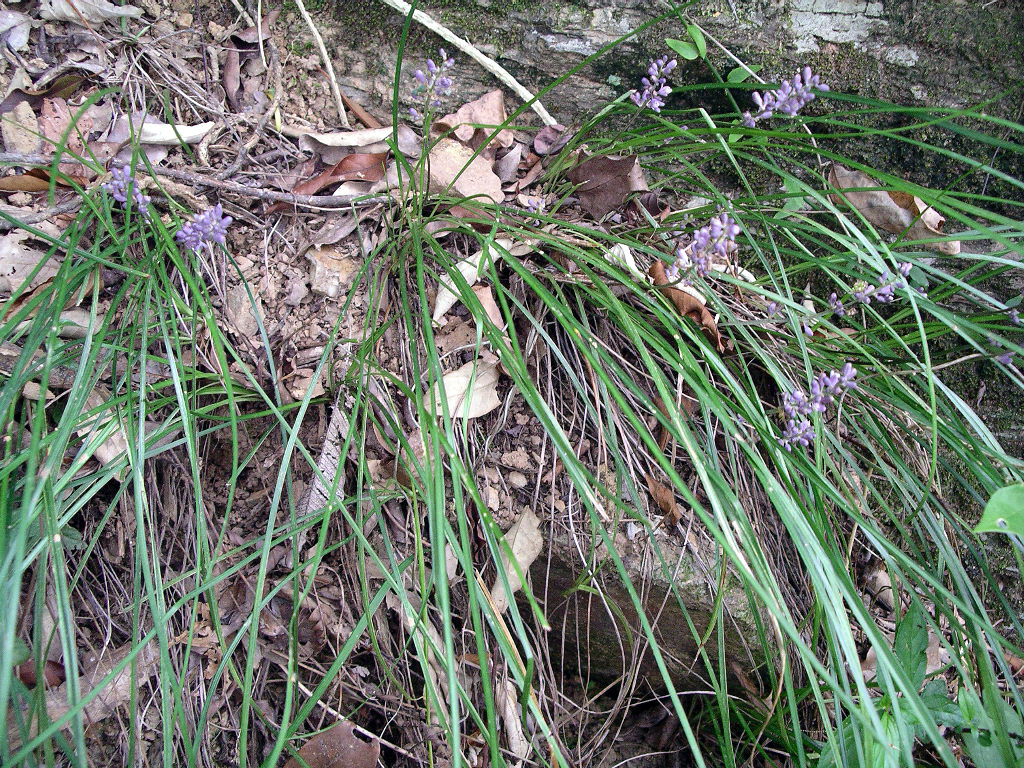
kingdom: Plantae
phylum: Tracheophyta
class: Liliopsida
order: Asparagales
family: Asparagaceae
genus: Liriope
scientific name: Liriope graminifolia
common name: Lilyturf
